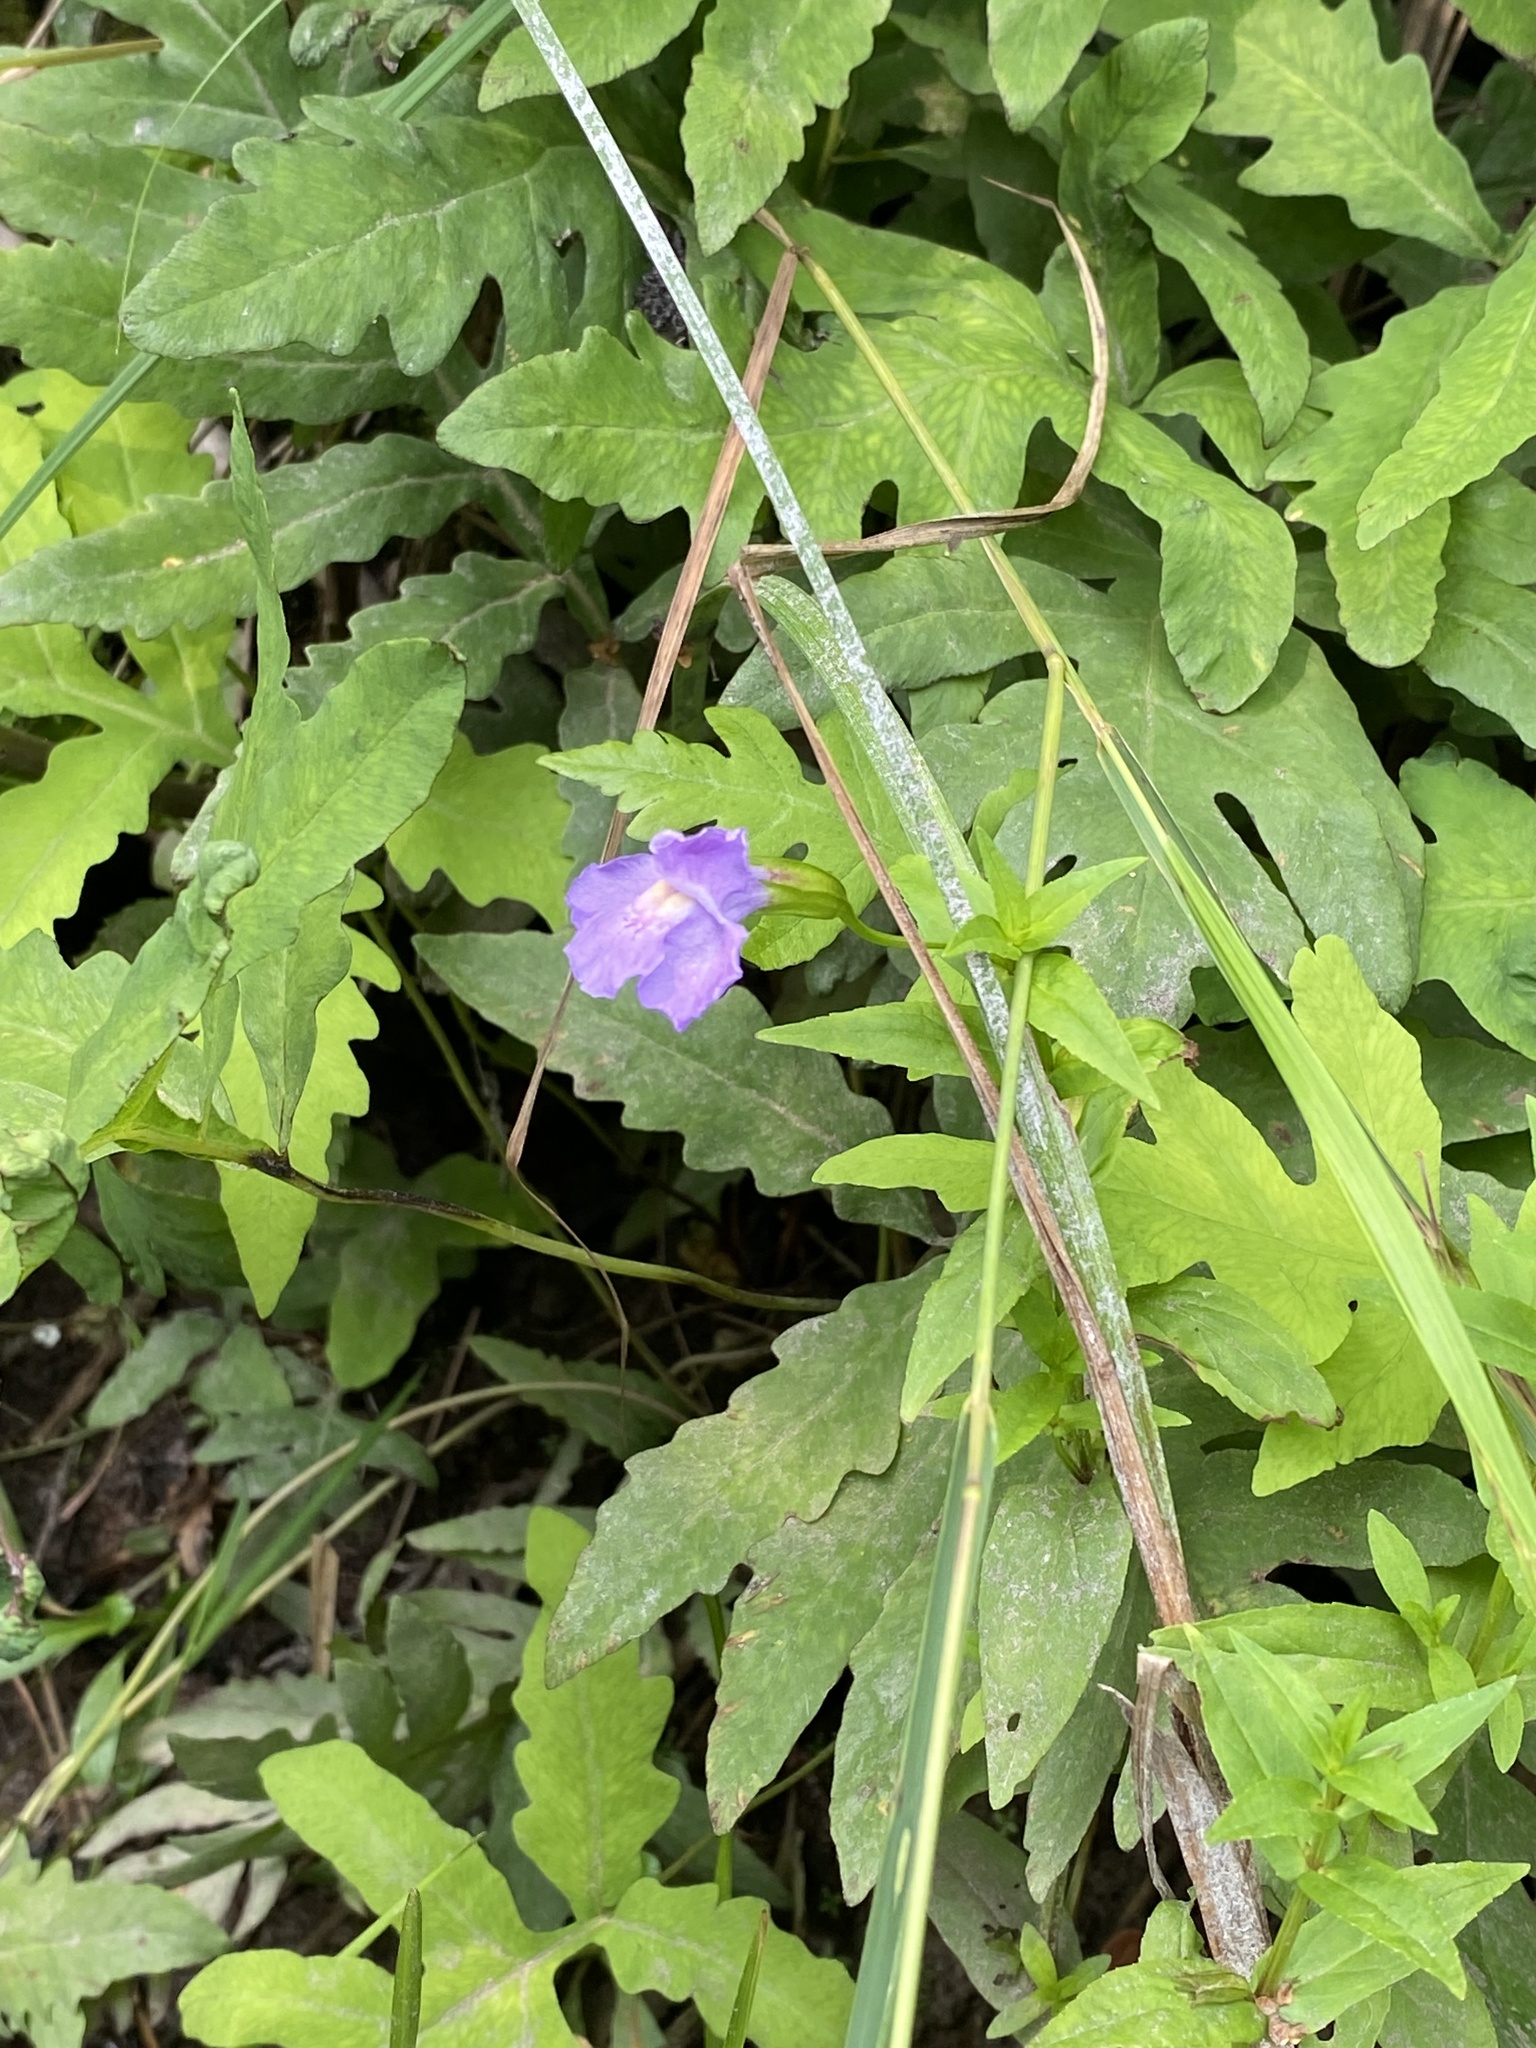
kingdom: Plantae
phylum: Tracheophyta
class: Magnoliopsida
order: Lamiales
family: Phrymaceae
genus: Mimulus
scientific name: Mimulus ringens
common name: Allegheny monkeyflower
